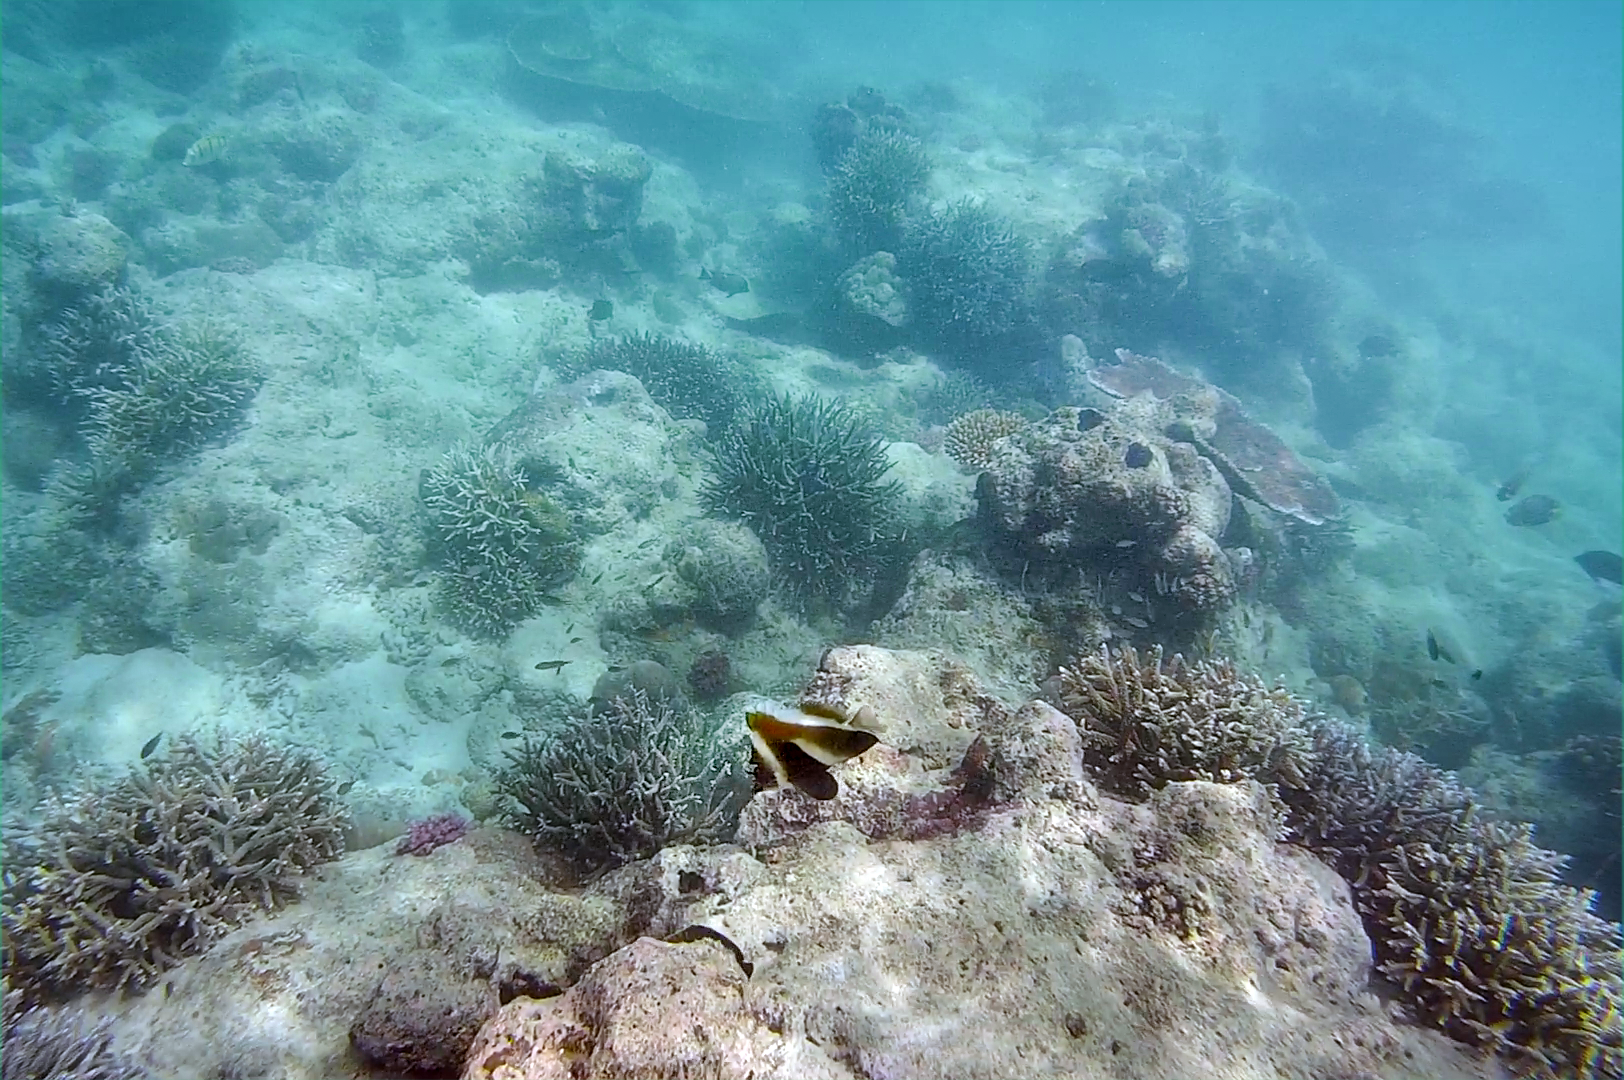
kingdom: Animalia
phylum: Chordata
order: Perciformes
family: Chaetodontidae
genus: Heniochus
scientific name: Heniochus pleurotaenia
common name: Indian ocean bannerfish
